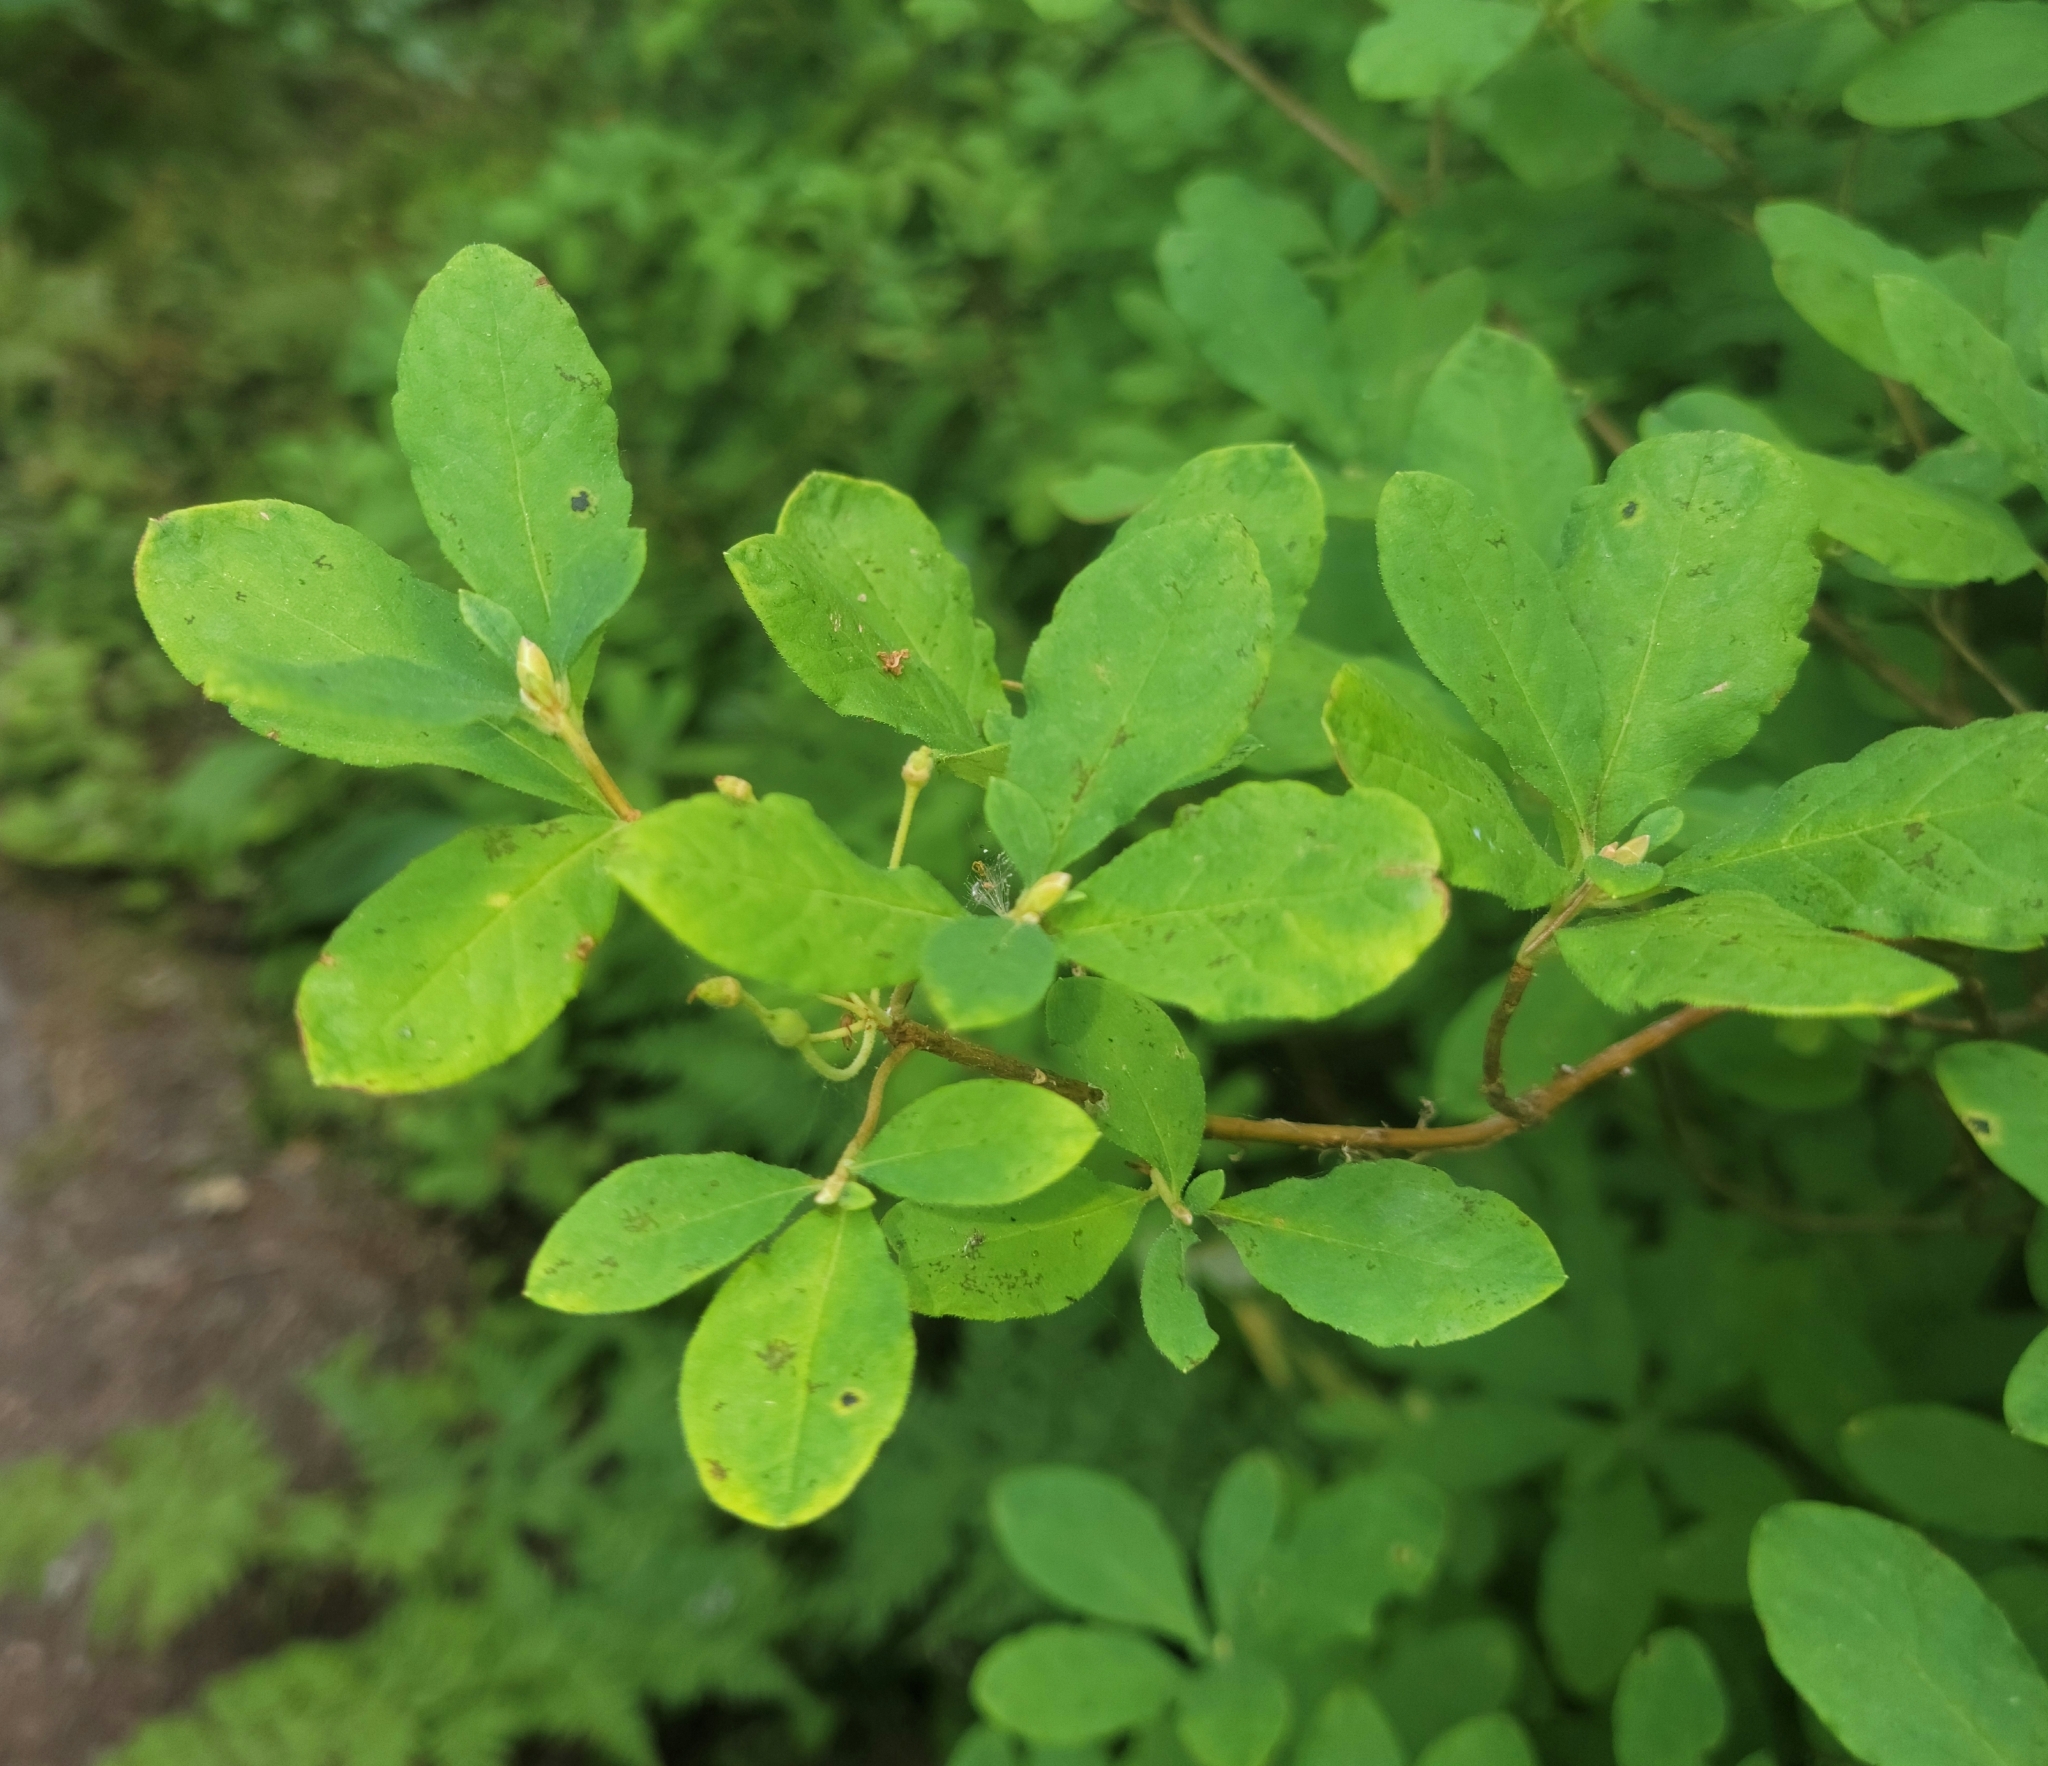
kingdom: Plantae
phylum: Tracheophyta
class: Magnoliopsida
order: Ericales
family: Ericaceae
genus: Rhododendron
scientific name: Rhododendron menziesii
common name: Pacific menziesia
